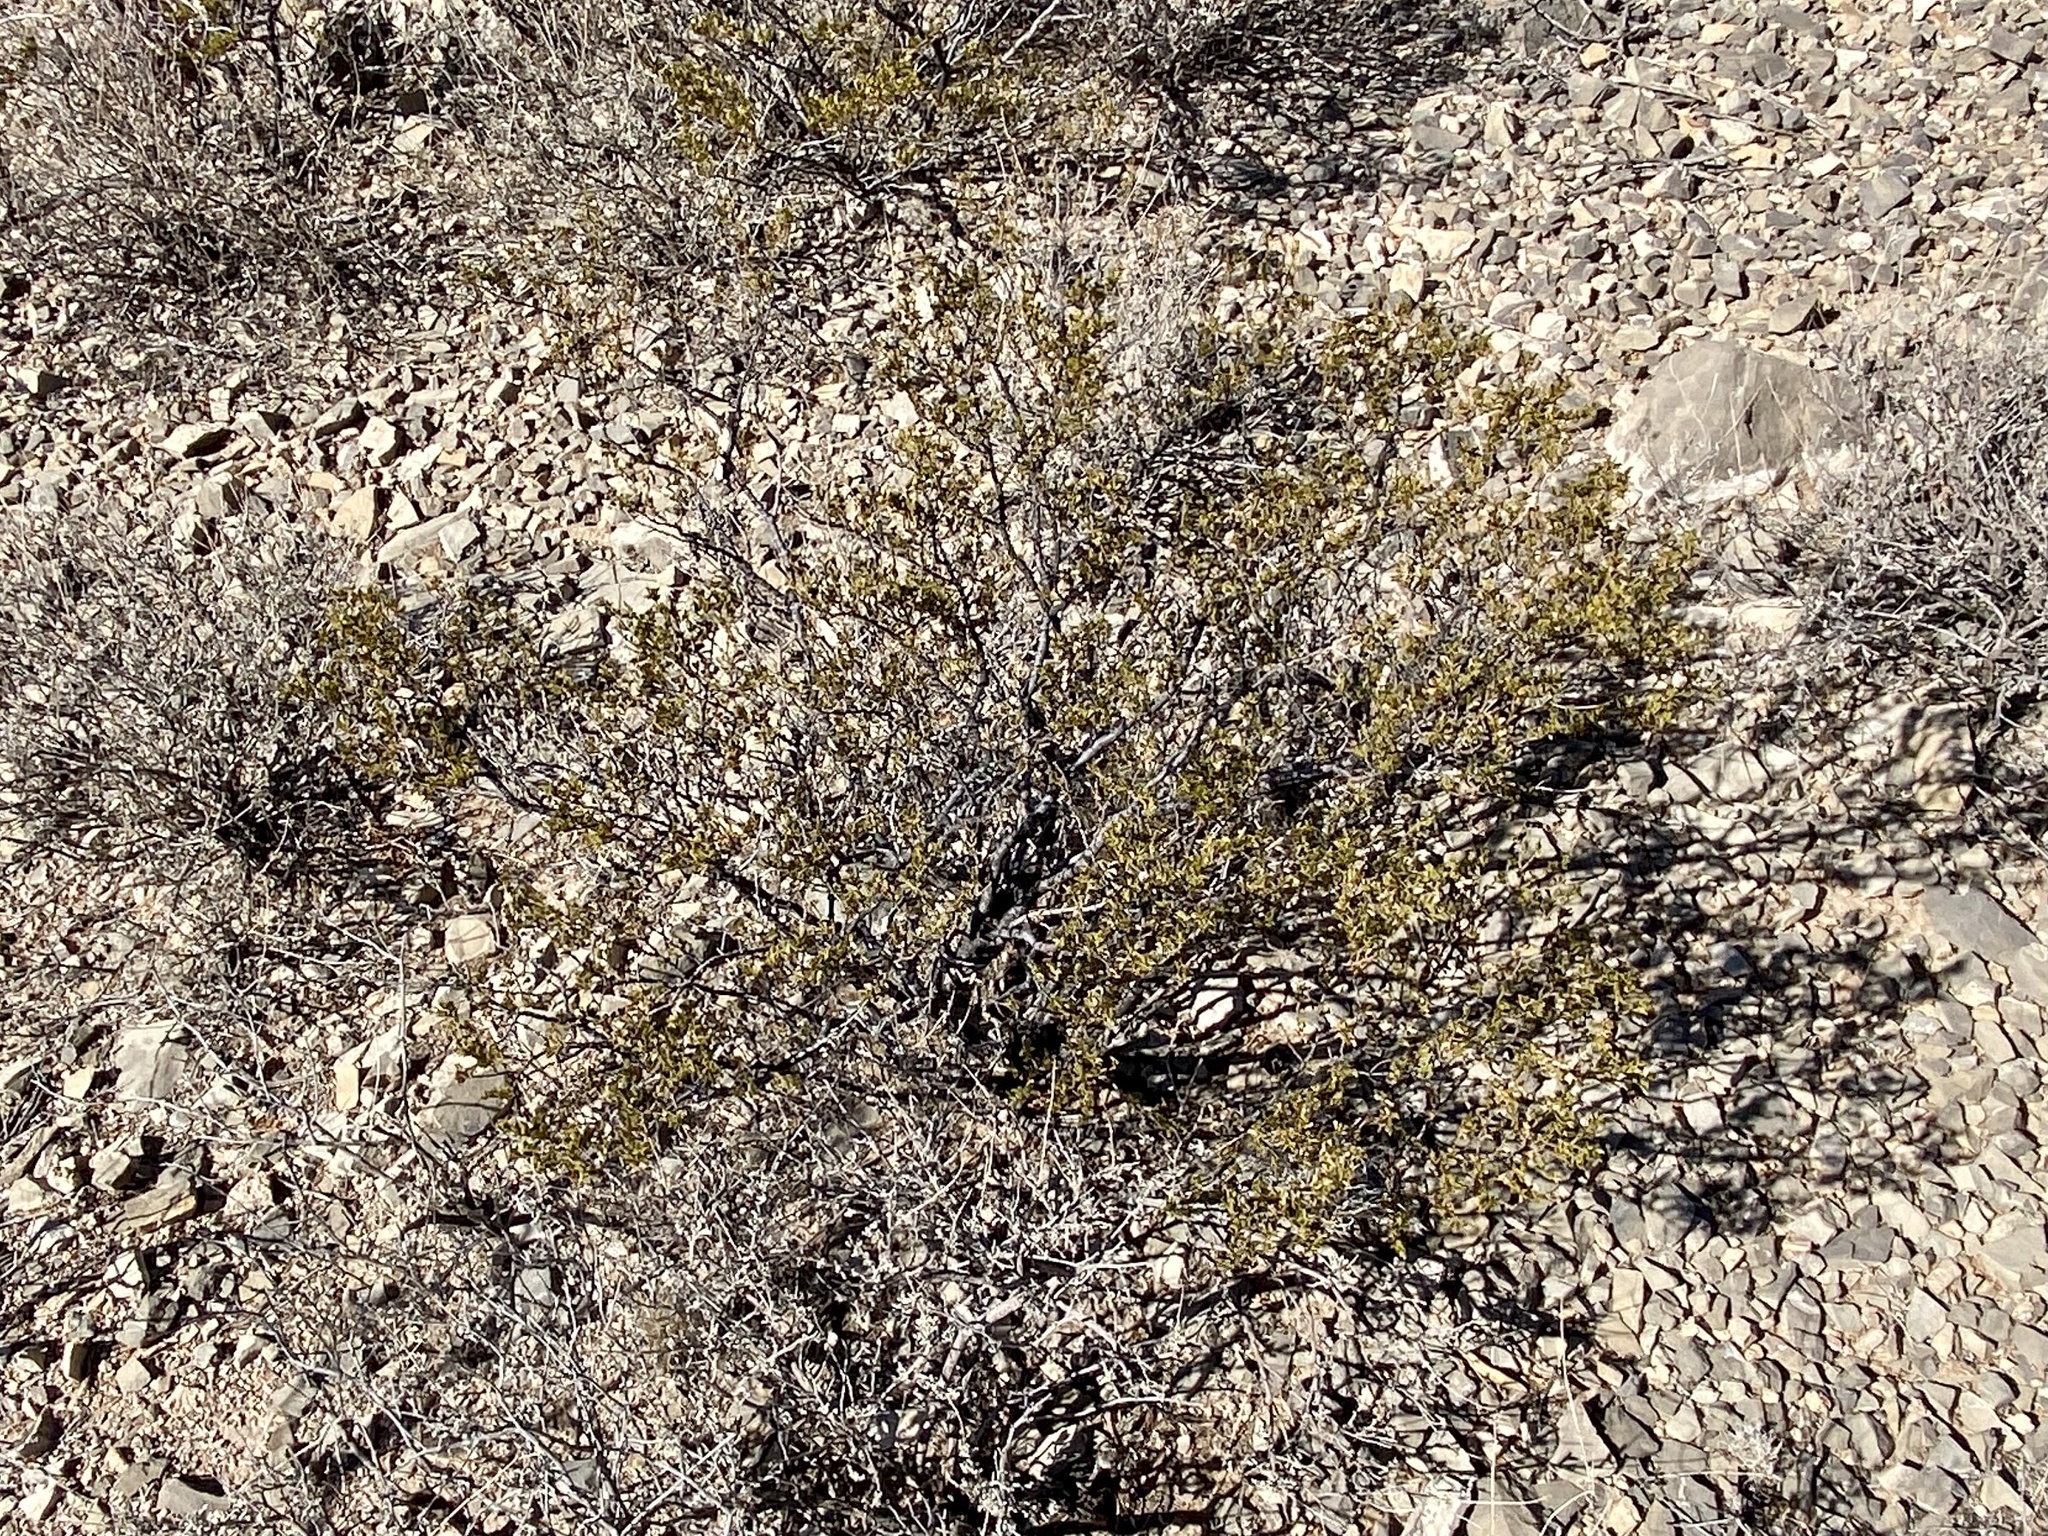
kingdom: Plantae
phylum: Tracheophyta
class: Magnoliopsida
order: Zygophyllales
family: Zygophyllaceae
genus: Larrea
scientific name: Larrea tridentata
